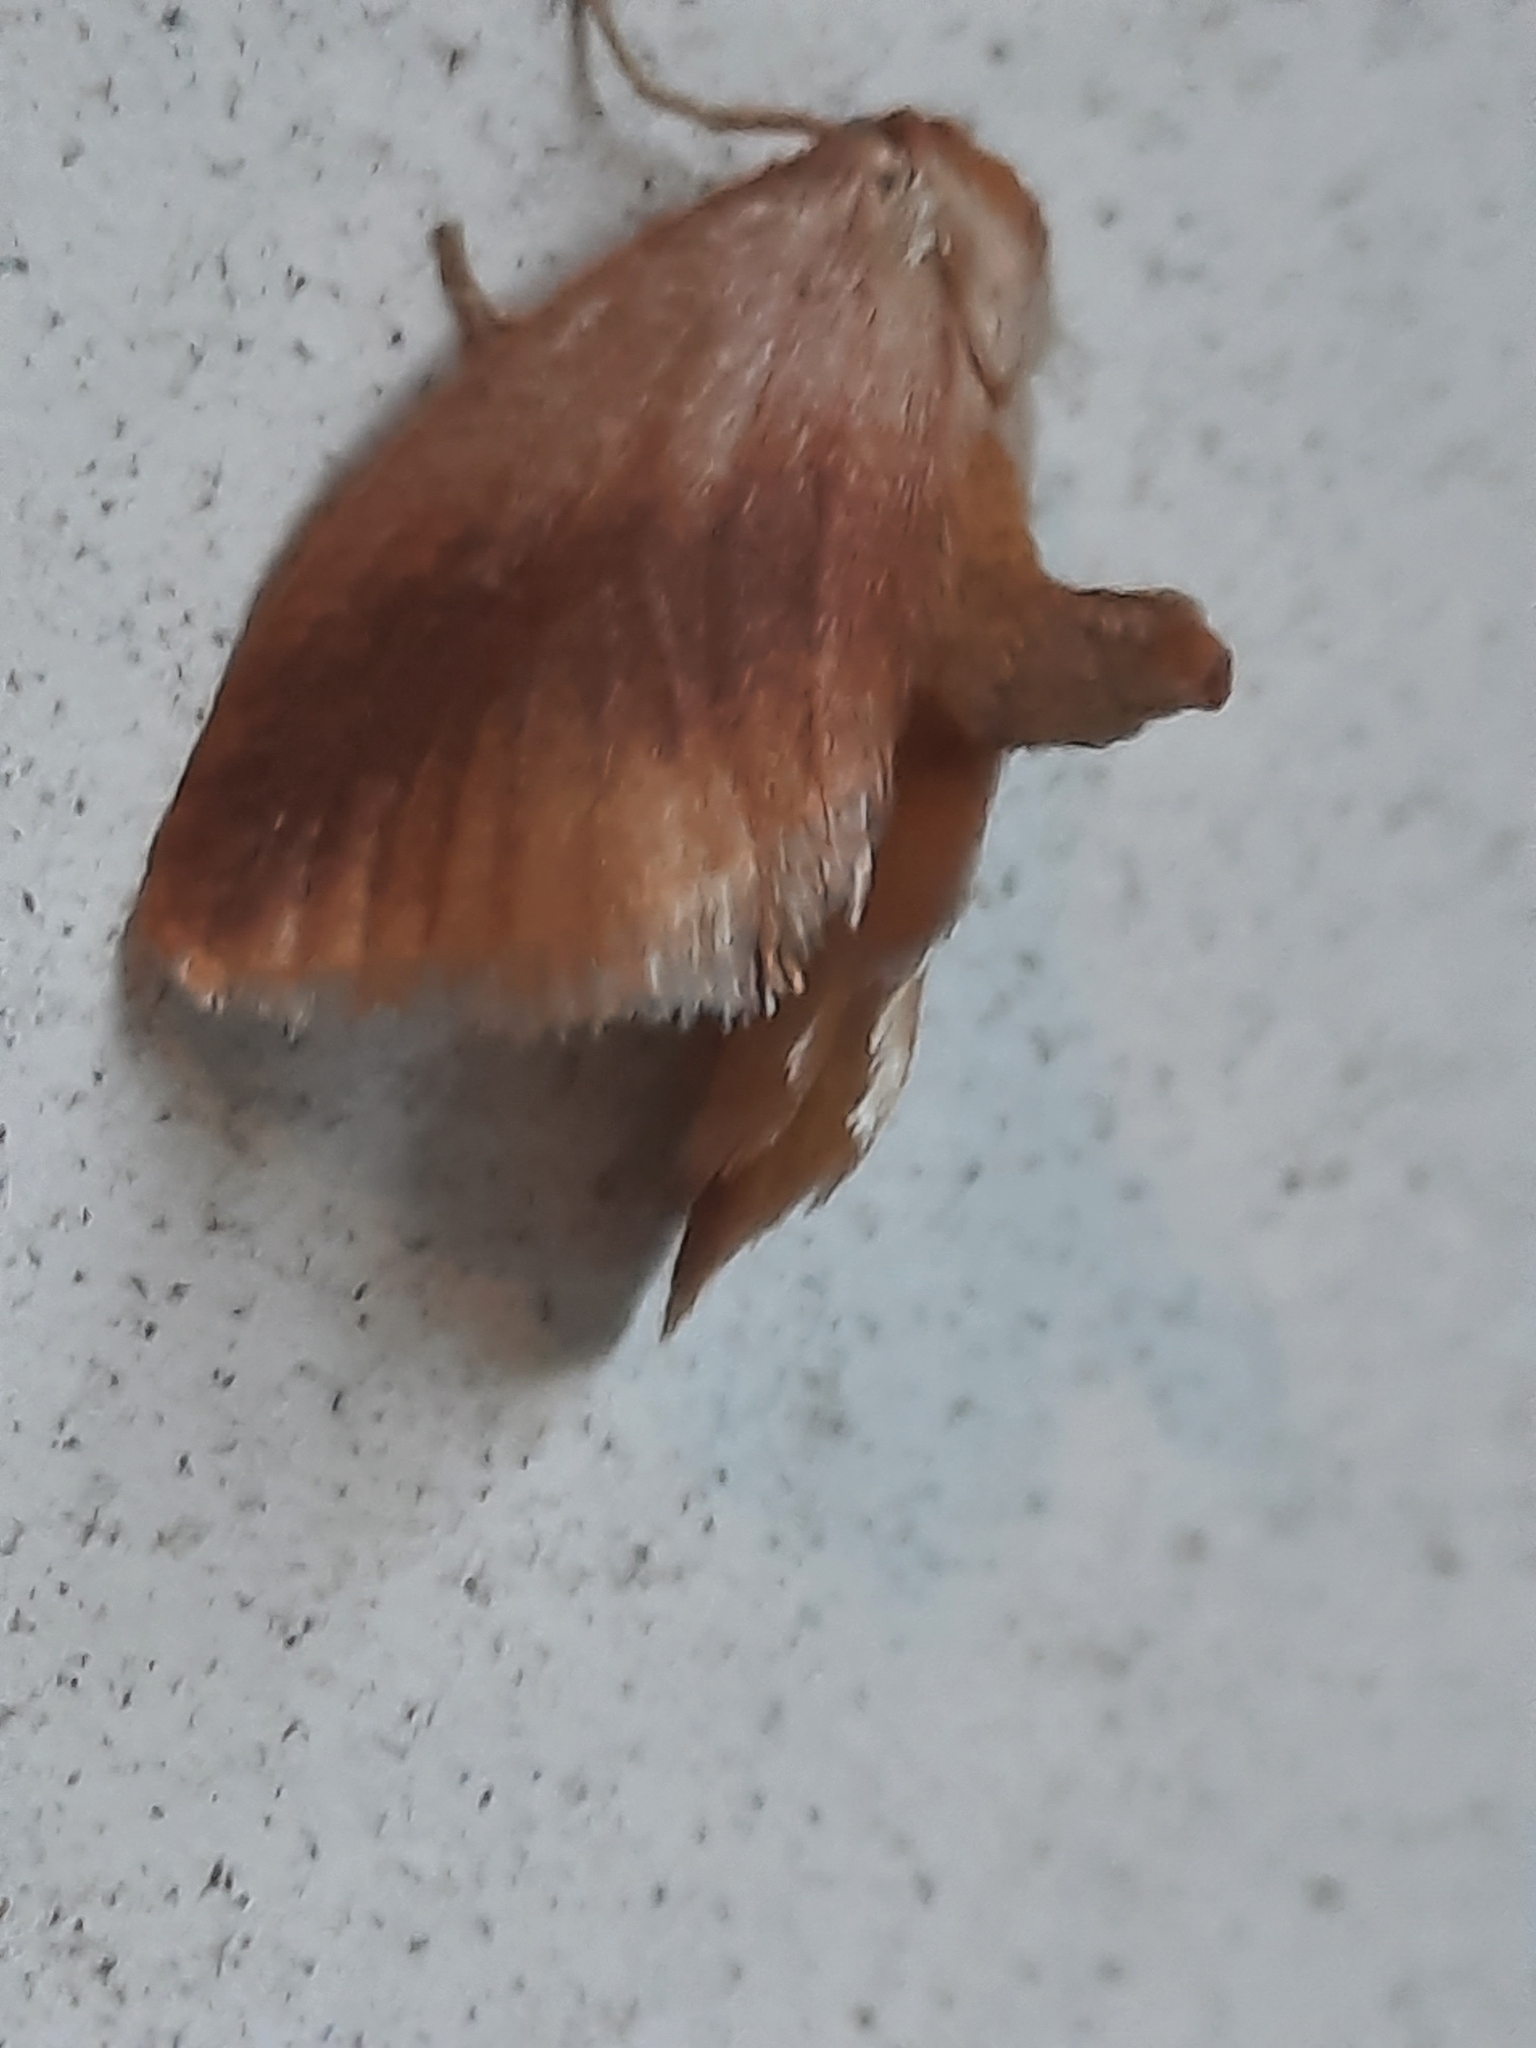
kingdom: Animalia
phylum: Arthropoda
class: Insecta
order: Lepidoptera
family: Limacodidae
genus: Tortricidia
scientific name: Tortricidia testacea
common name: Early button slug moth
